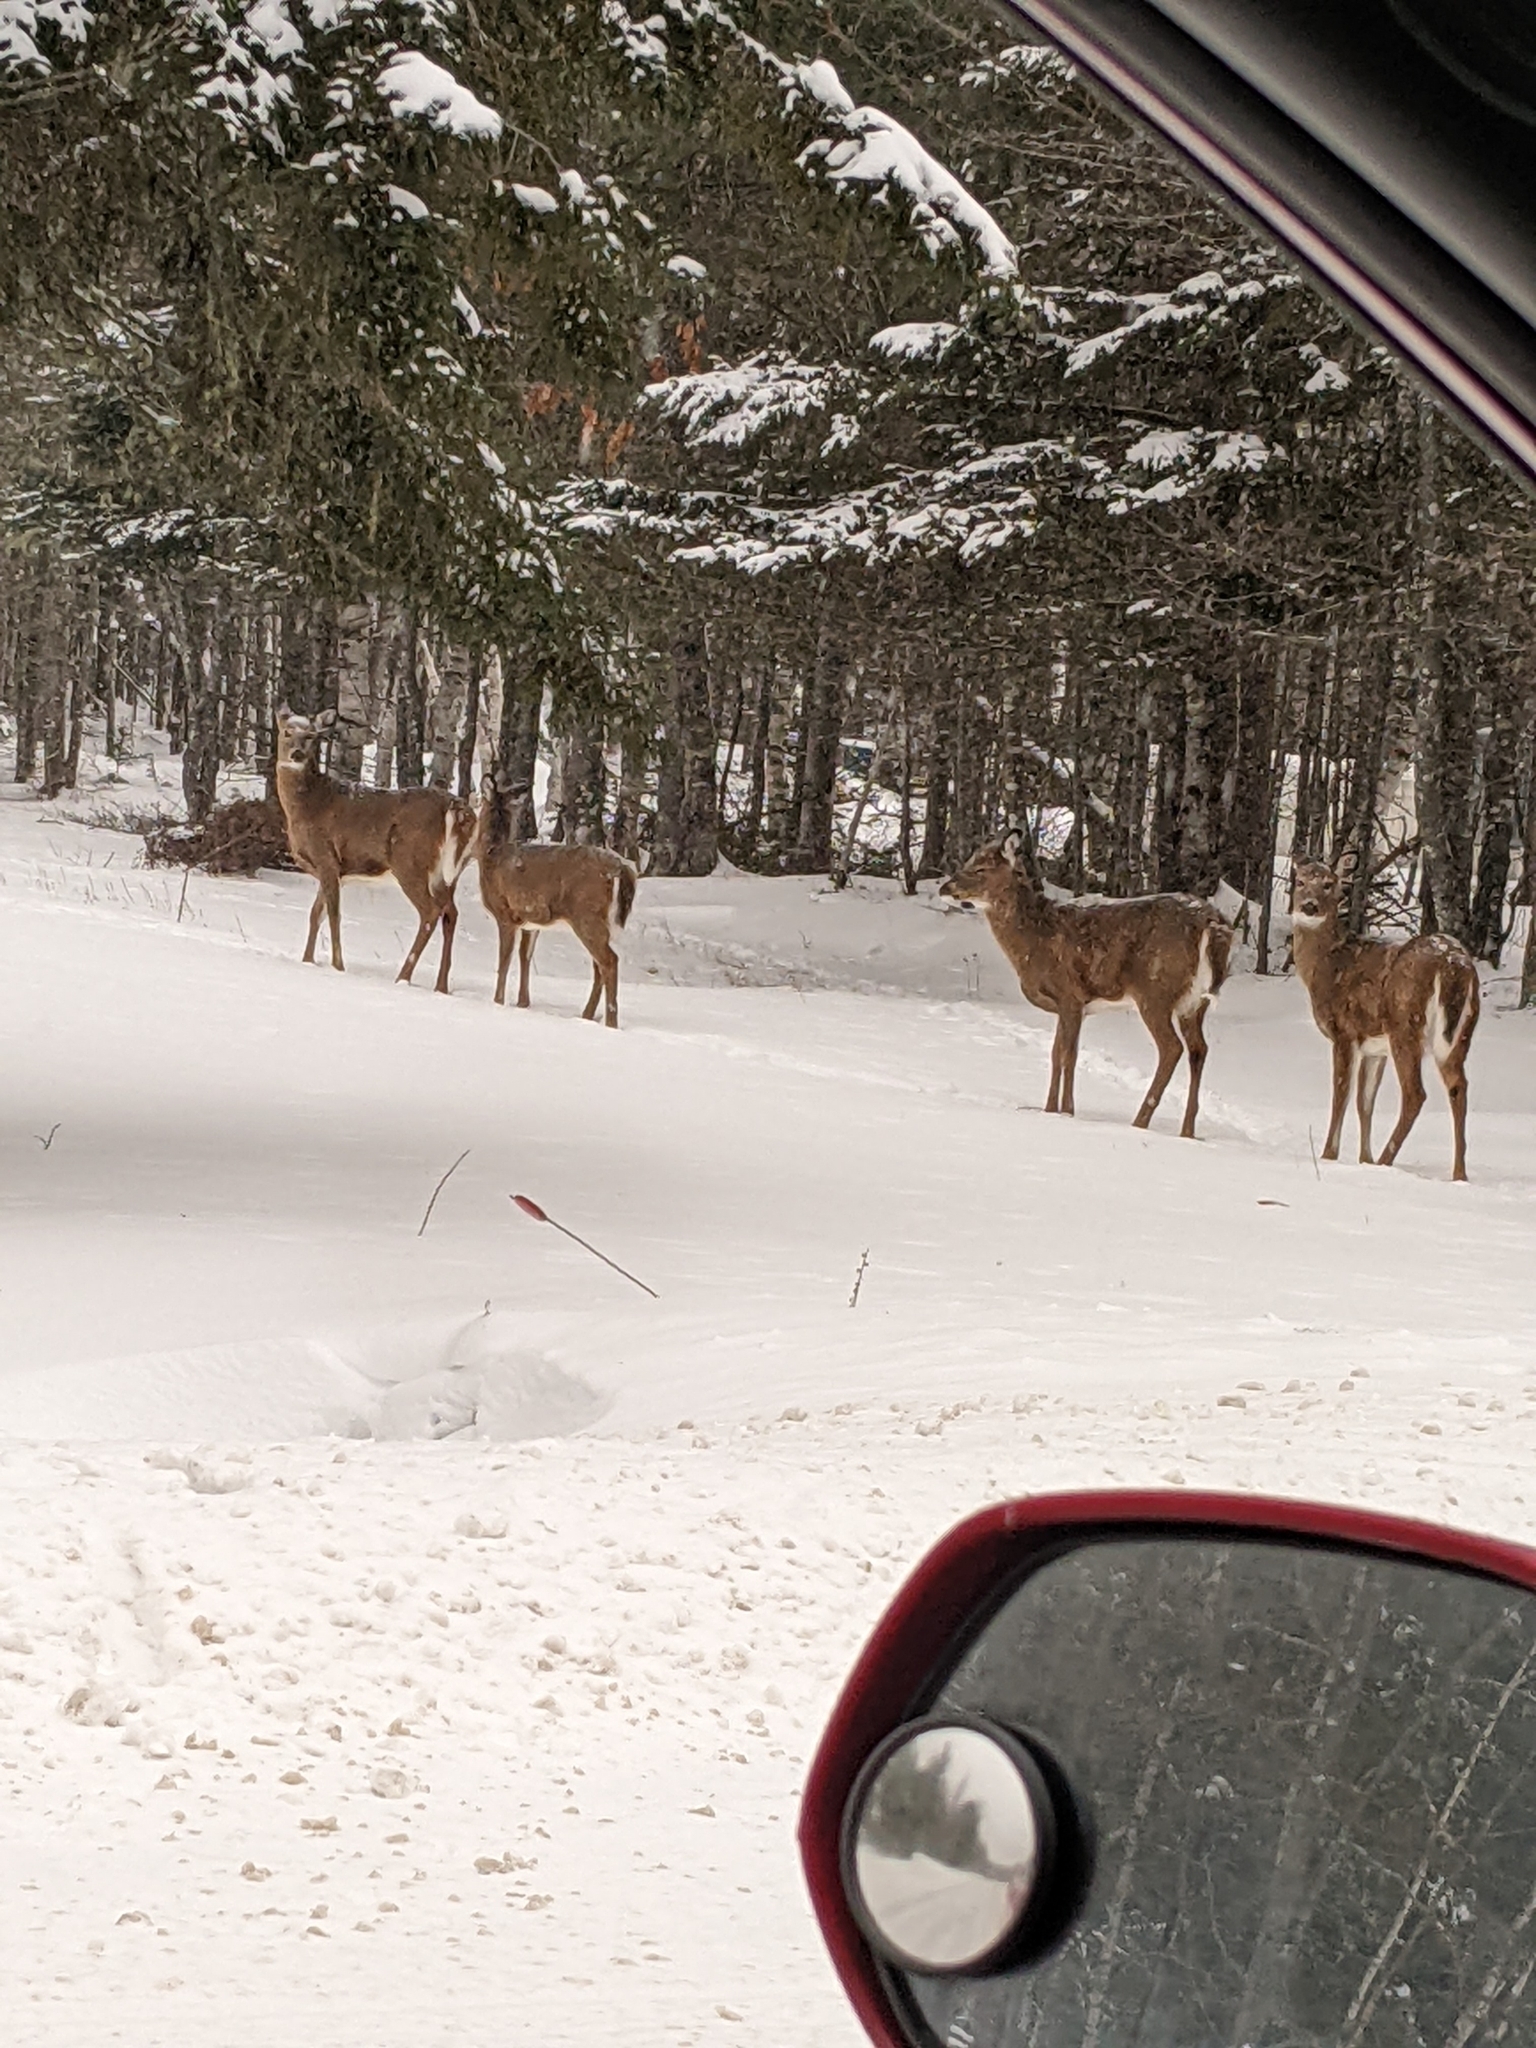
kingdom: Animalia
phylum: Chordata
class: Mammalia
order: Artiodactyla
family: Cervidae
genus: Odocoileus
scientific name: Odocoileus virginianus
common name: White-tailed deer
